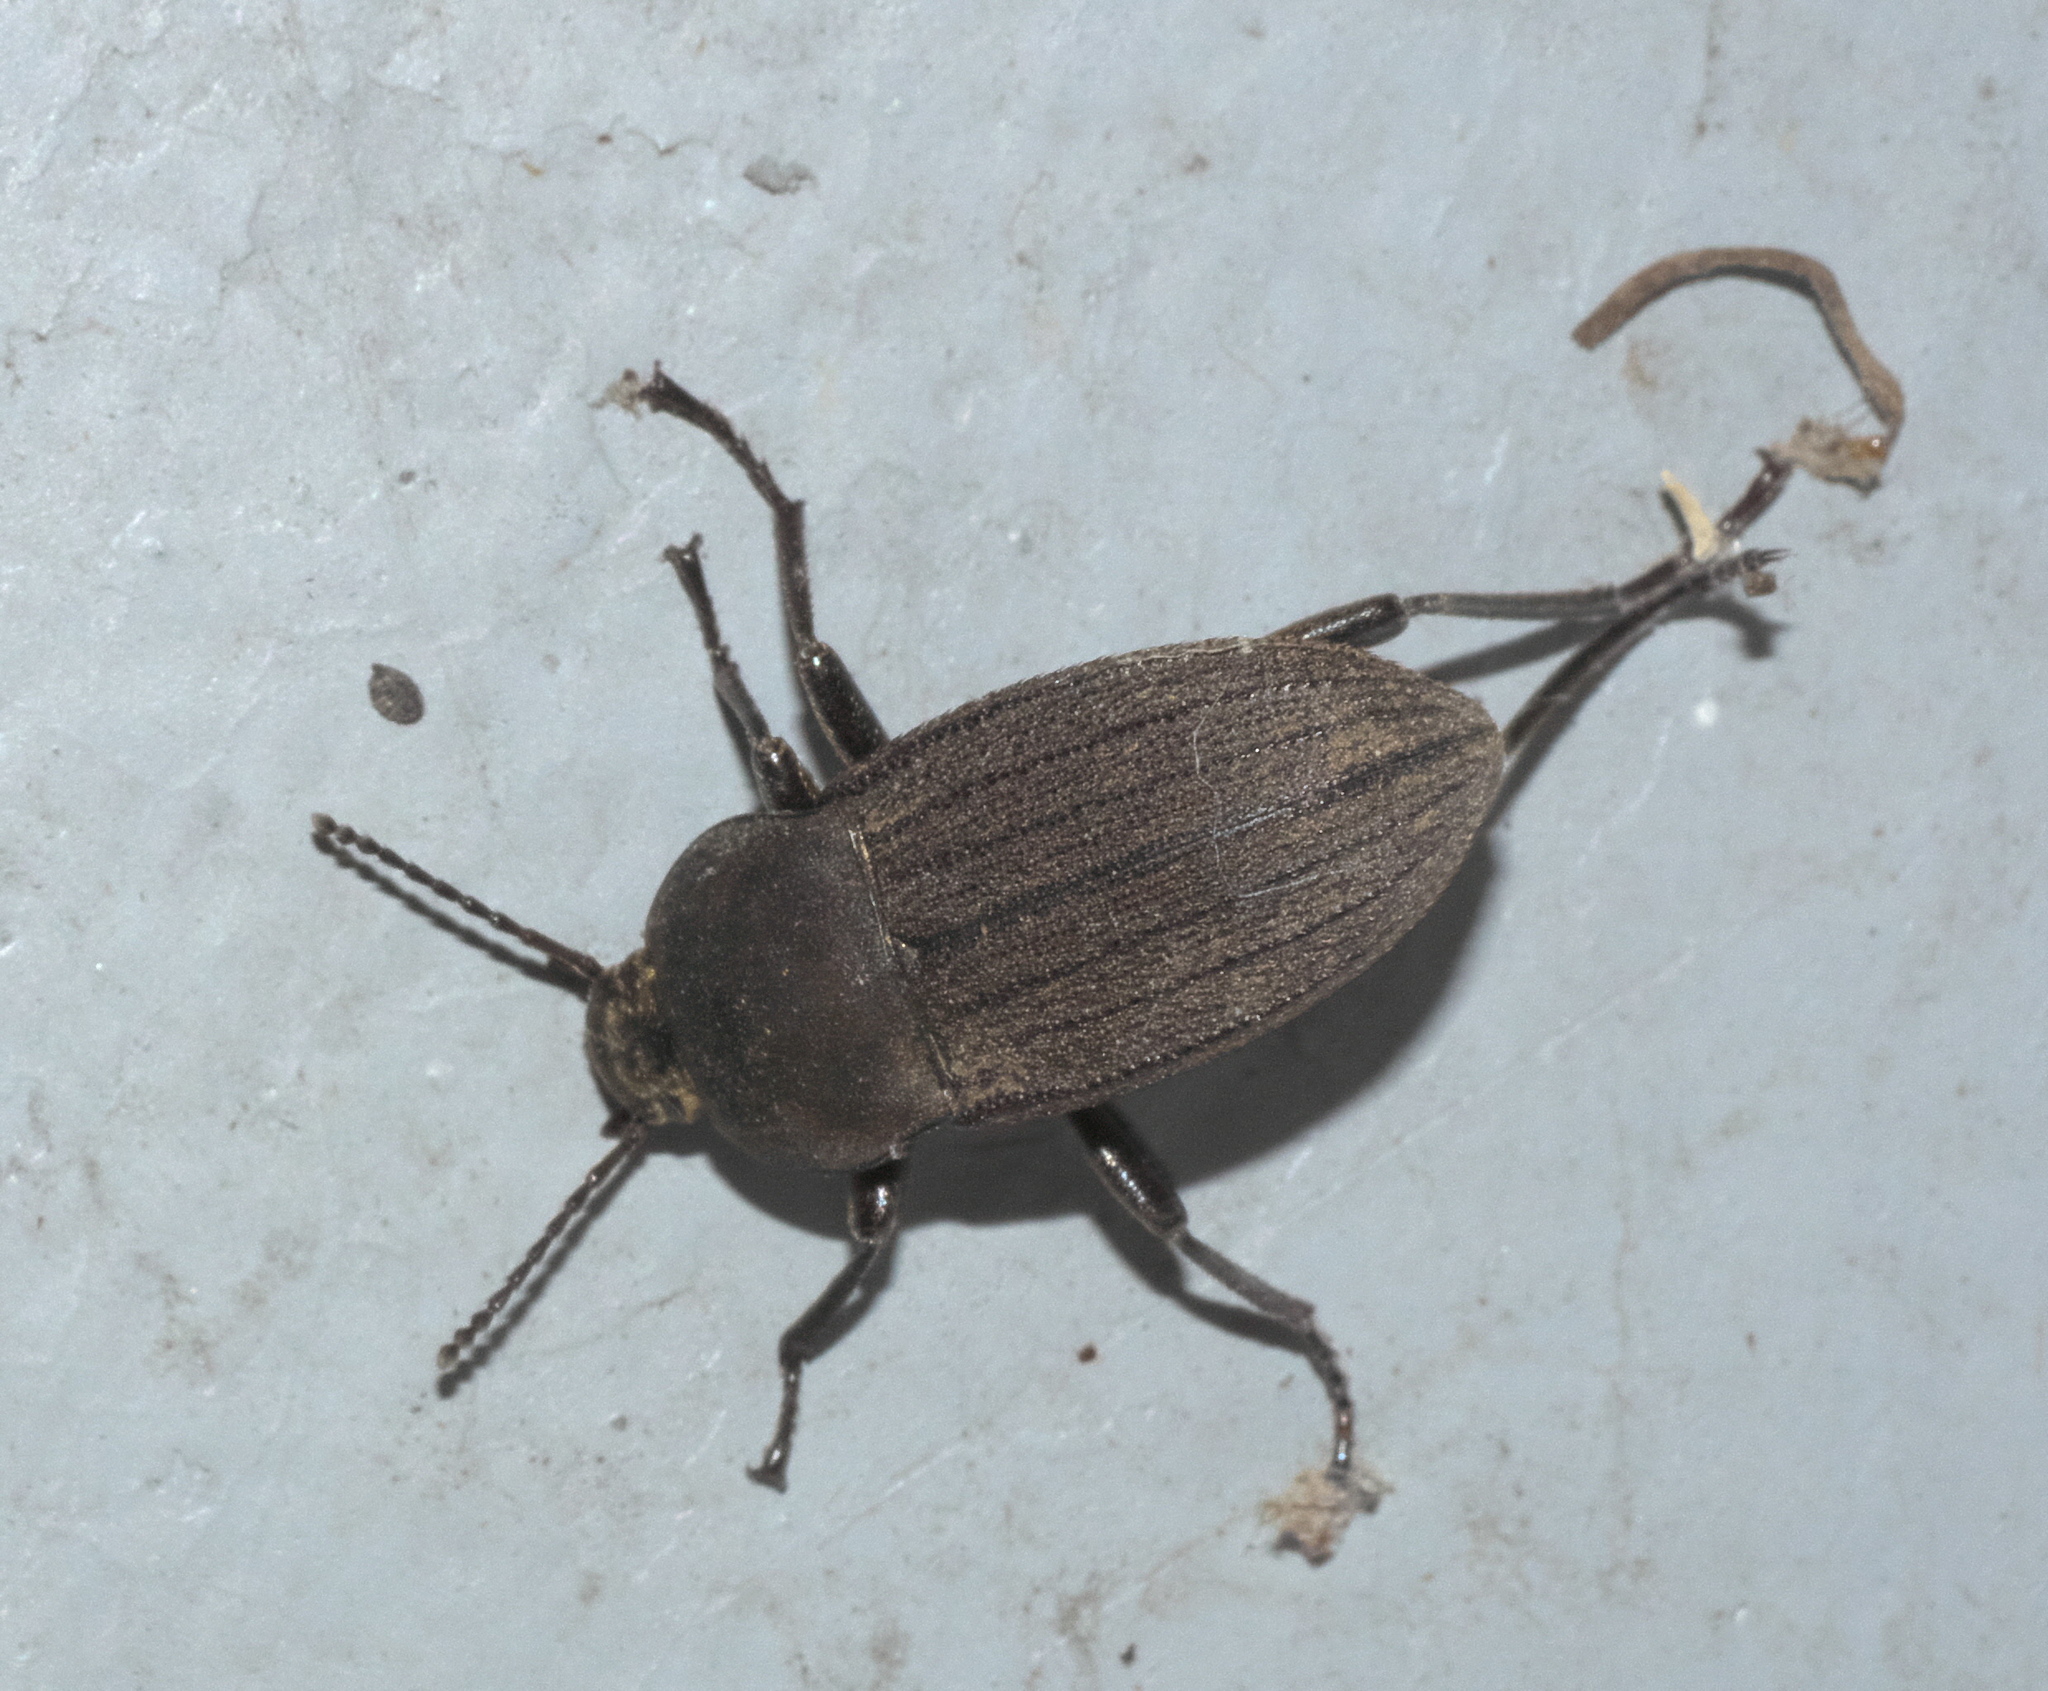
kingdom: Animalia
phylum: Arthropoda
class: Insecta
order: Coleoptera
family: Tenebrionidae
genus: Eleodes
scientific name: Eleodes tricostata
